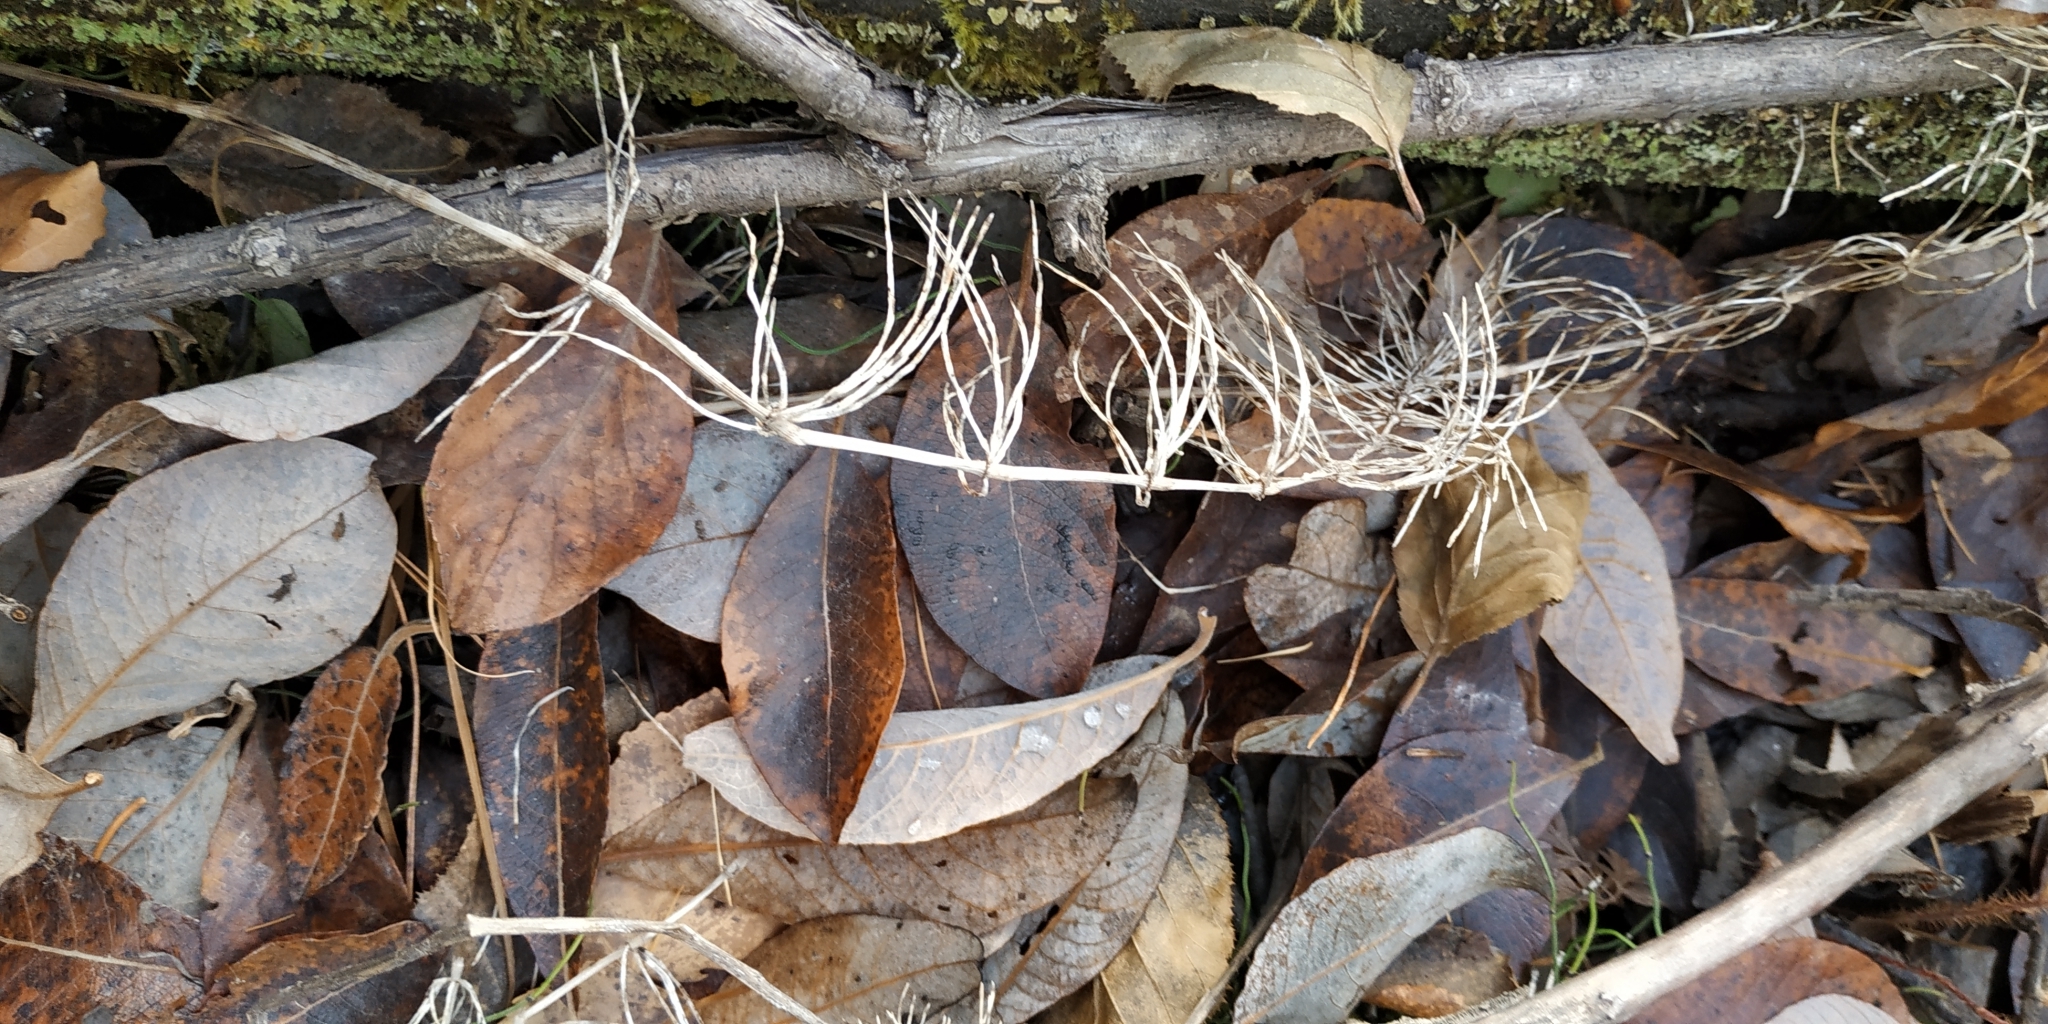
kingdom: Plantae
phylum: Tracheophyta
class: Polypodiopsida
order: Equisetales
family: Equisetaceae
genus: Equisetum
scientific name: Equisetum pratense
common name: Meadow horsetail
